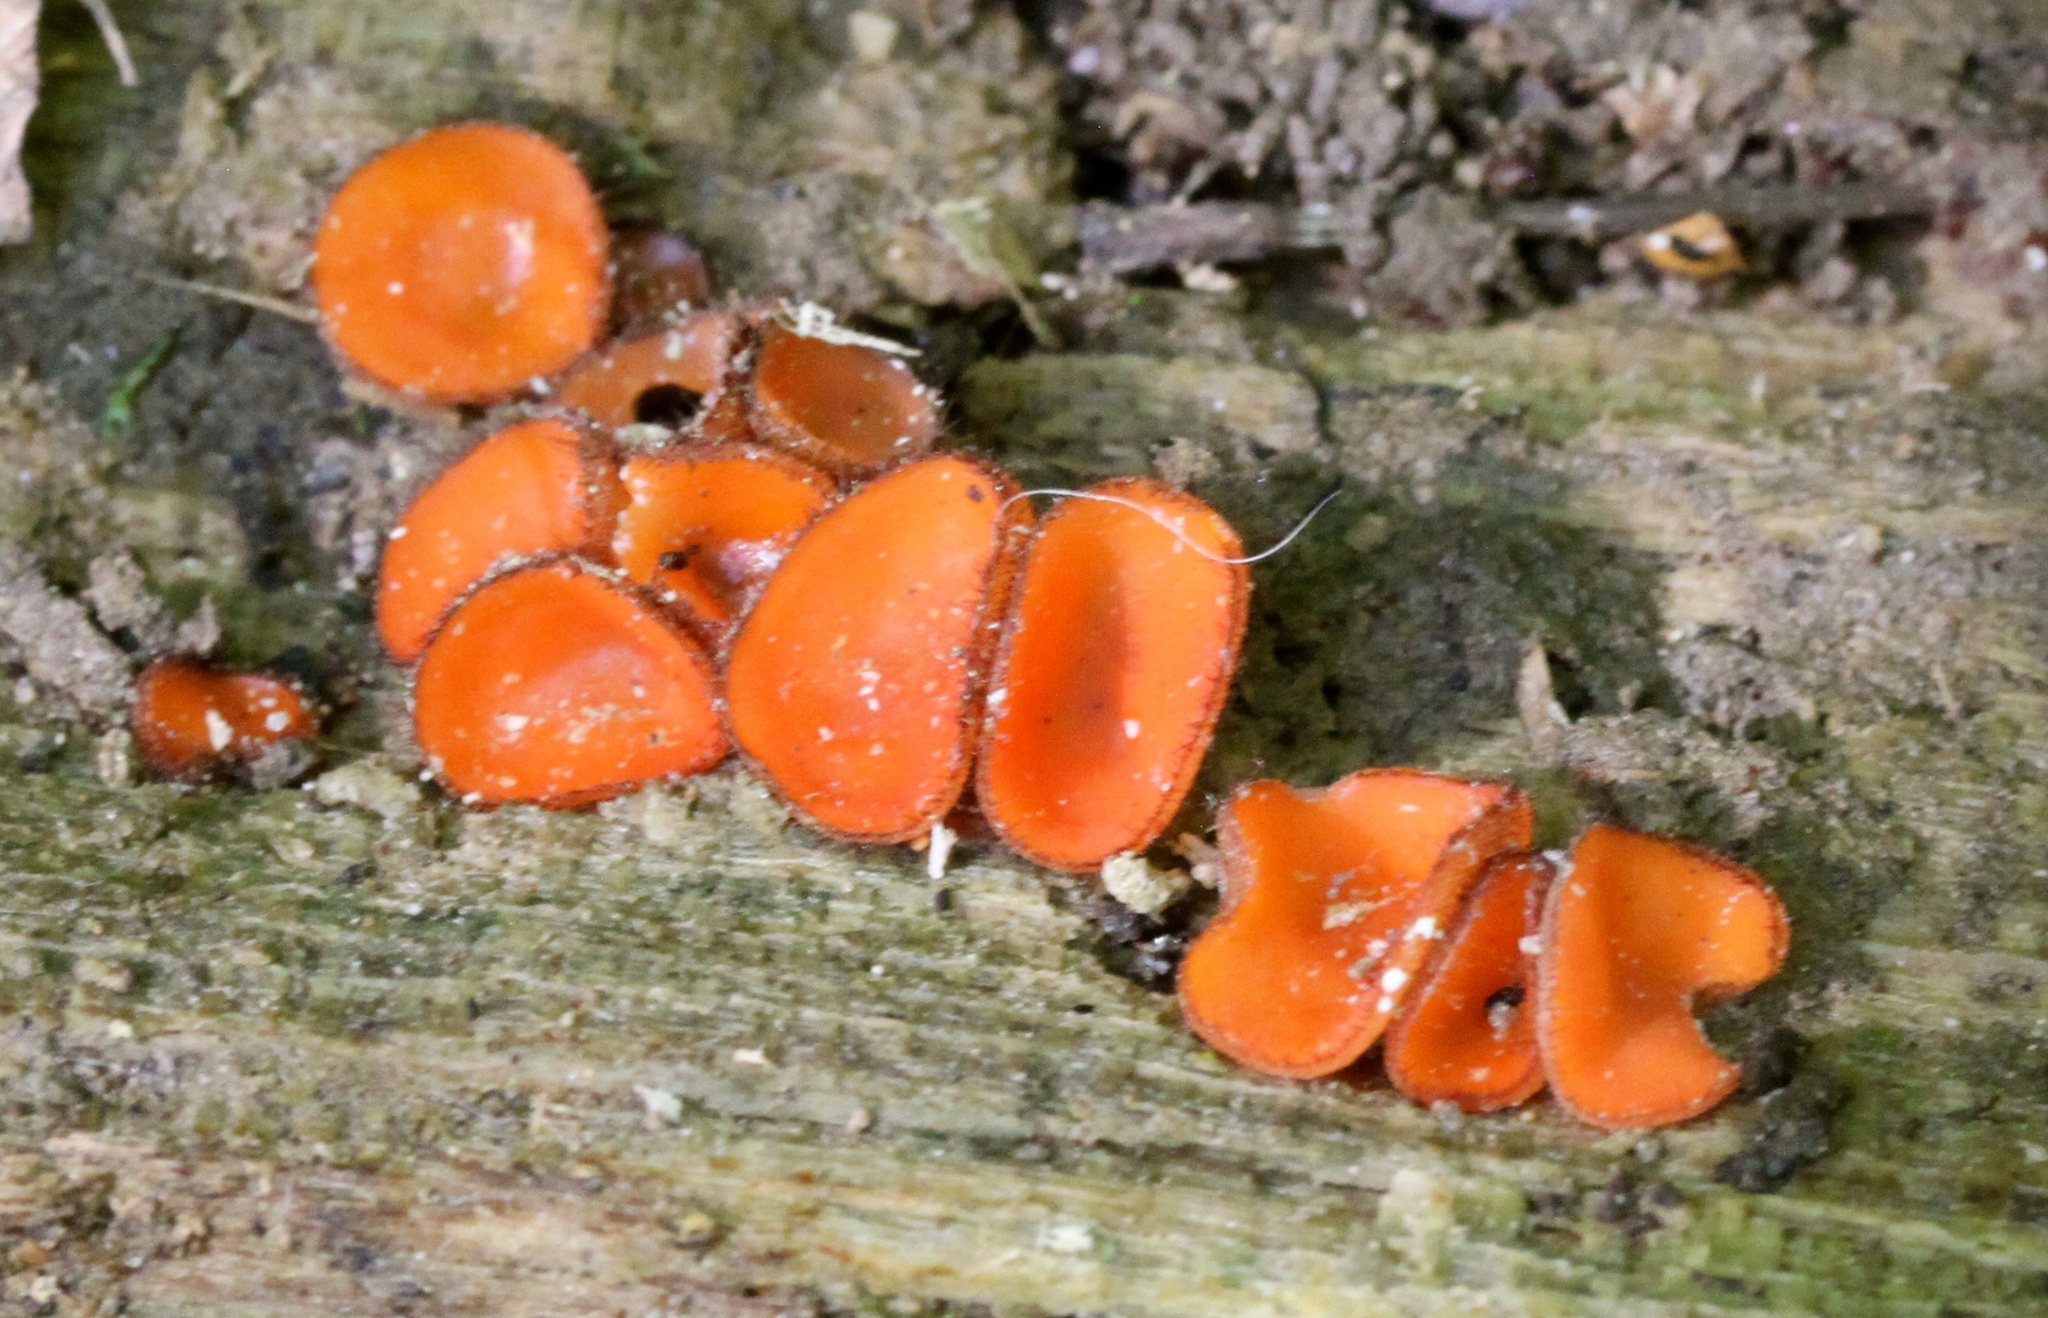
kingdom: Fungi
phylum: Ascomycota
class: Pezizomycetes
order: Pezizales
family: Pyronemataceae
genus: Scutellinia
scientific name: Scutellinia scutellata
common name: Common eyelash
